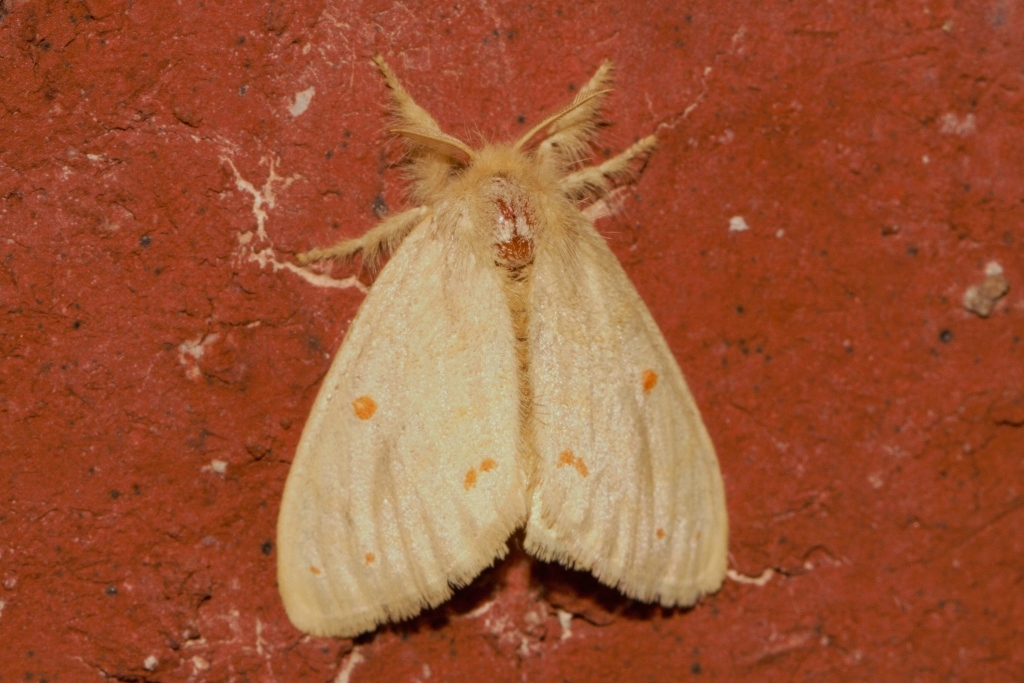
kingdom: Animalia
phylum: Arthropoda
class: Insecta
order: Lepidoptera
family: Erebidae
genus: Euproctis
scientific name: Euproctis rufopunctata
